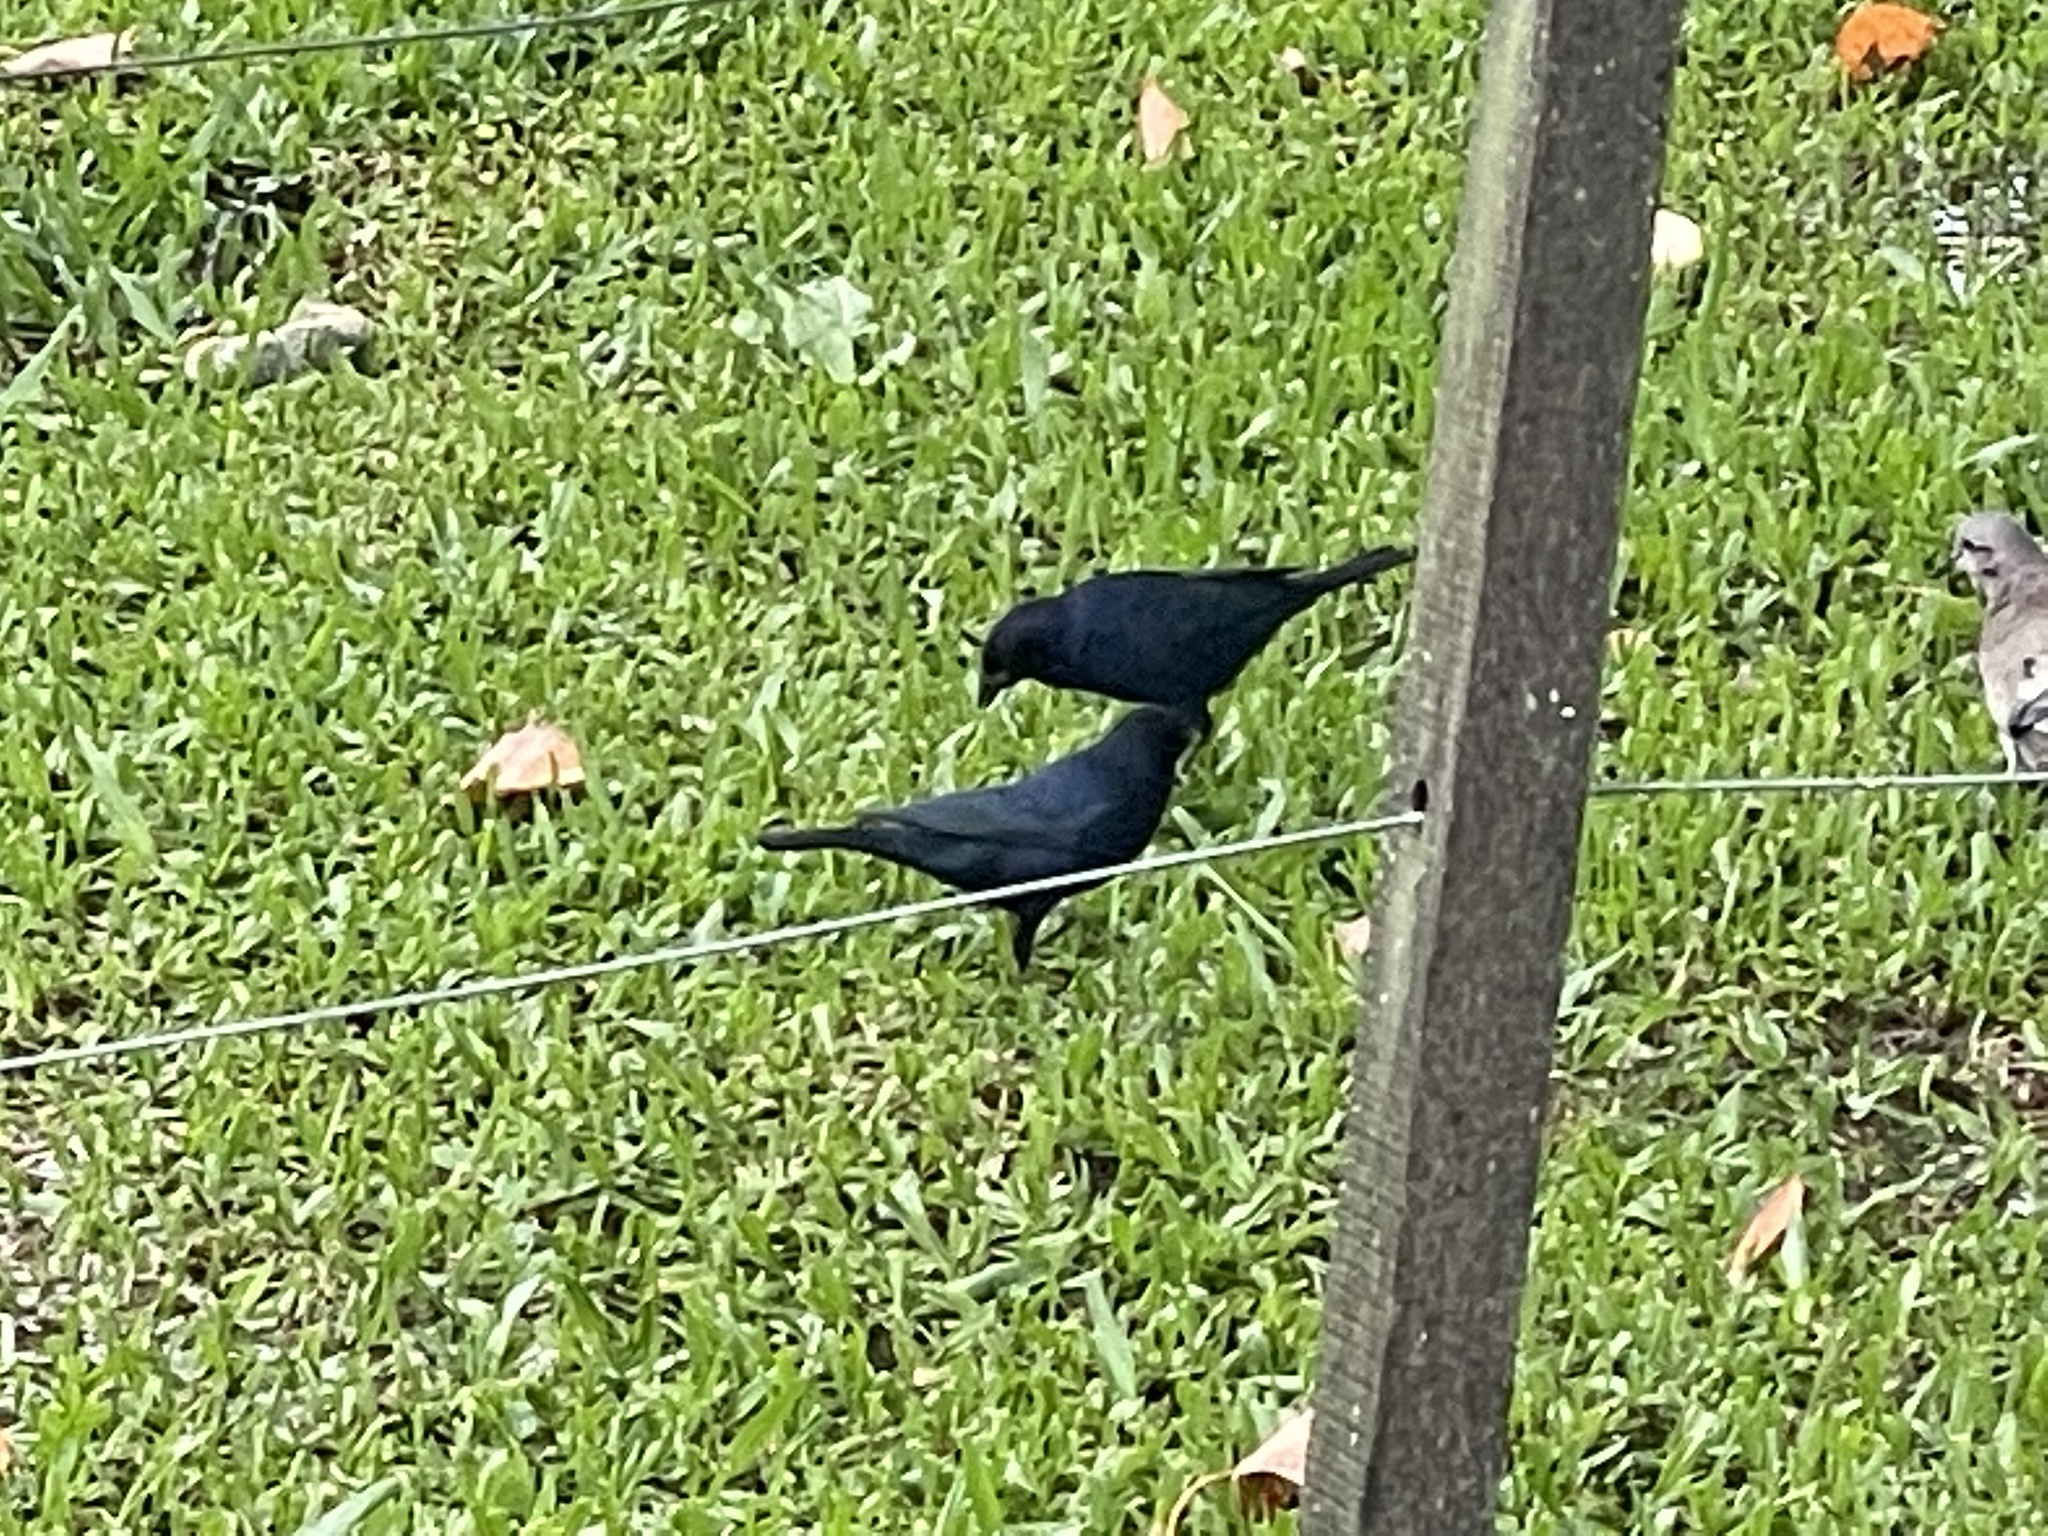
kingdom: Animalia
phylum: Chordata
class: Aves
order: Passeriformes
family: Icteridae
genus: Molothrus
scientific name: Molothrus bonariensis
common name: Shiny cowbird
